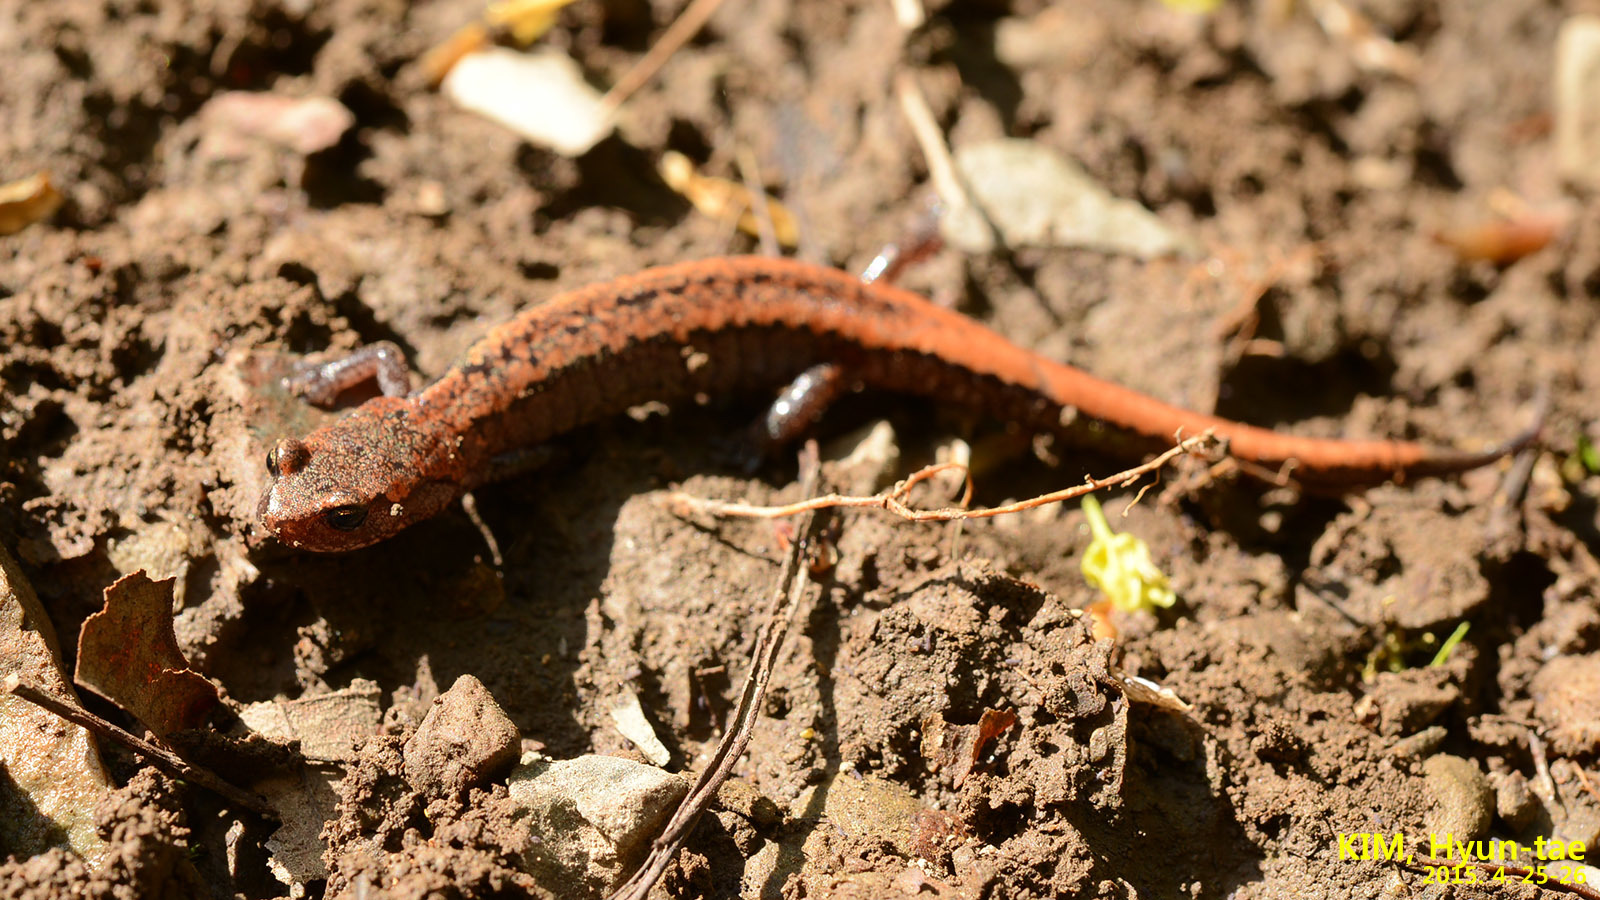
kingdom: Animalia
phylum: Chordata
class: Amphibia
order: Caudata
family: Plethodontidae
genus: Karsenia
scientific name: Karsenia koreana
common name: Korean crevice salamander
